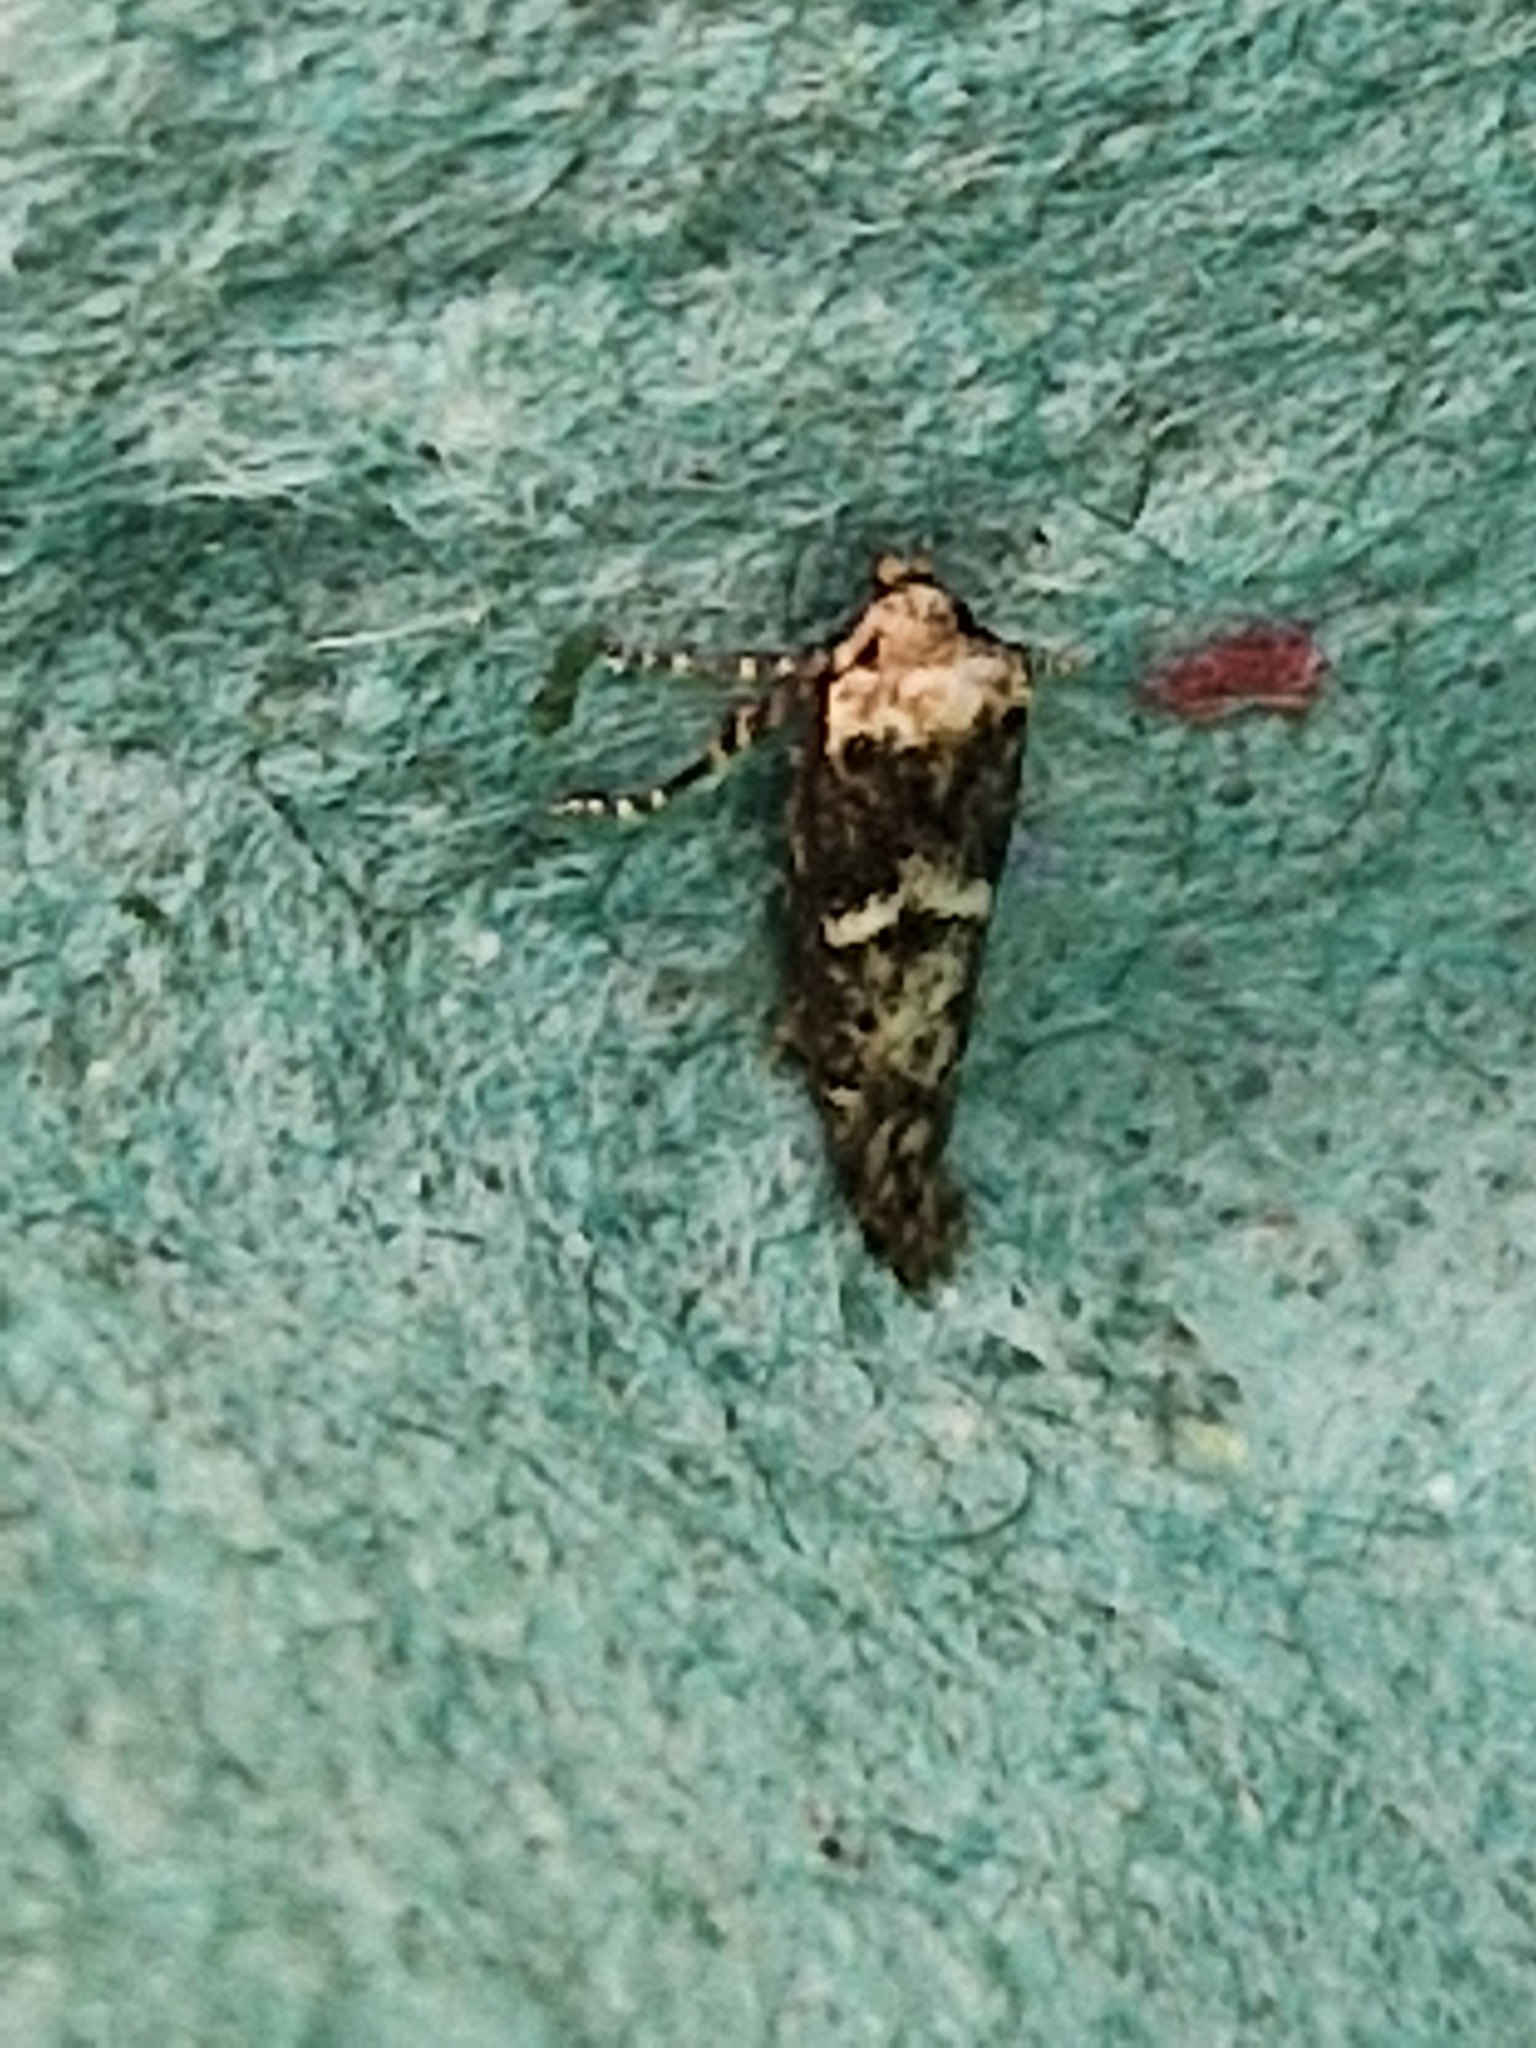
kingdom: Animalia
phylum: Arthropoda
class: Insecta
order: Lepidoptera
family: Blastobasidae
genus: Blastobasis
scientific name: Blastobasis adustella
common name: Dingy dowd
